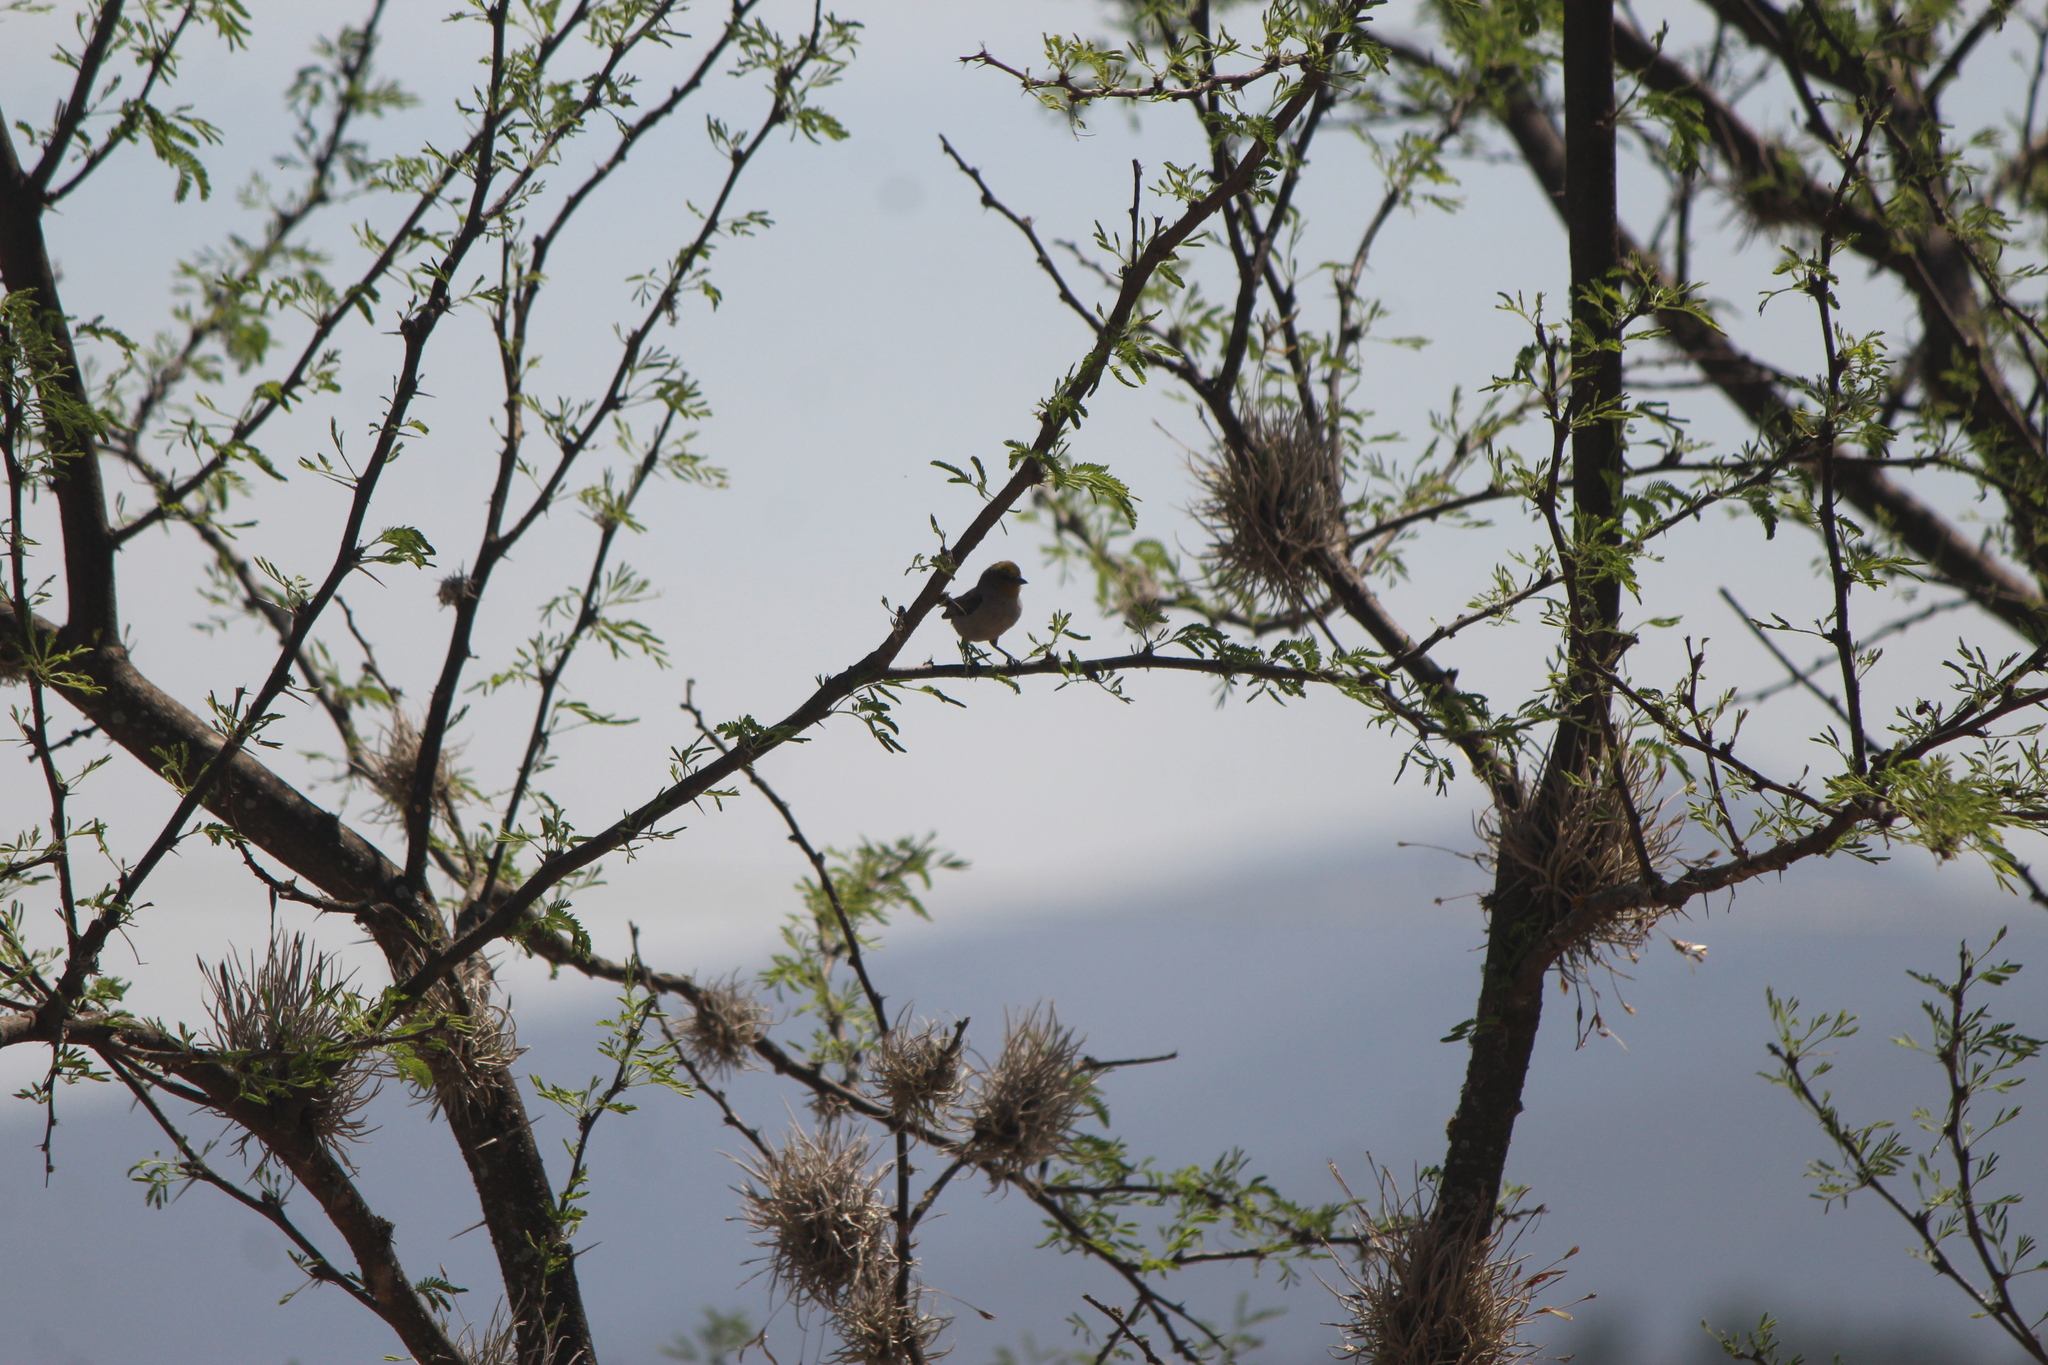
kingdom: Animalia
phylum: Chordata
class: Aves
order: Passeriformes
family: Remizidae
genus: Auriparus
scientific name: Auriparus flaviceps
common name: Verdin
